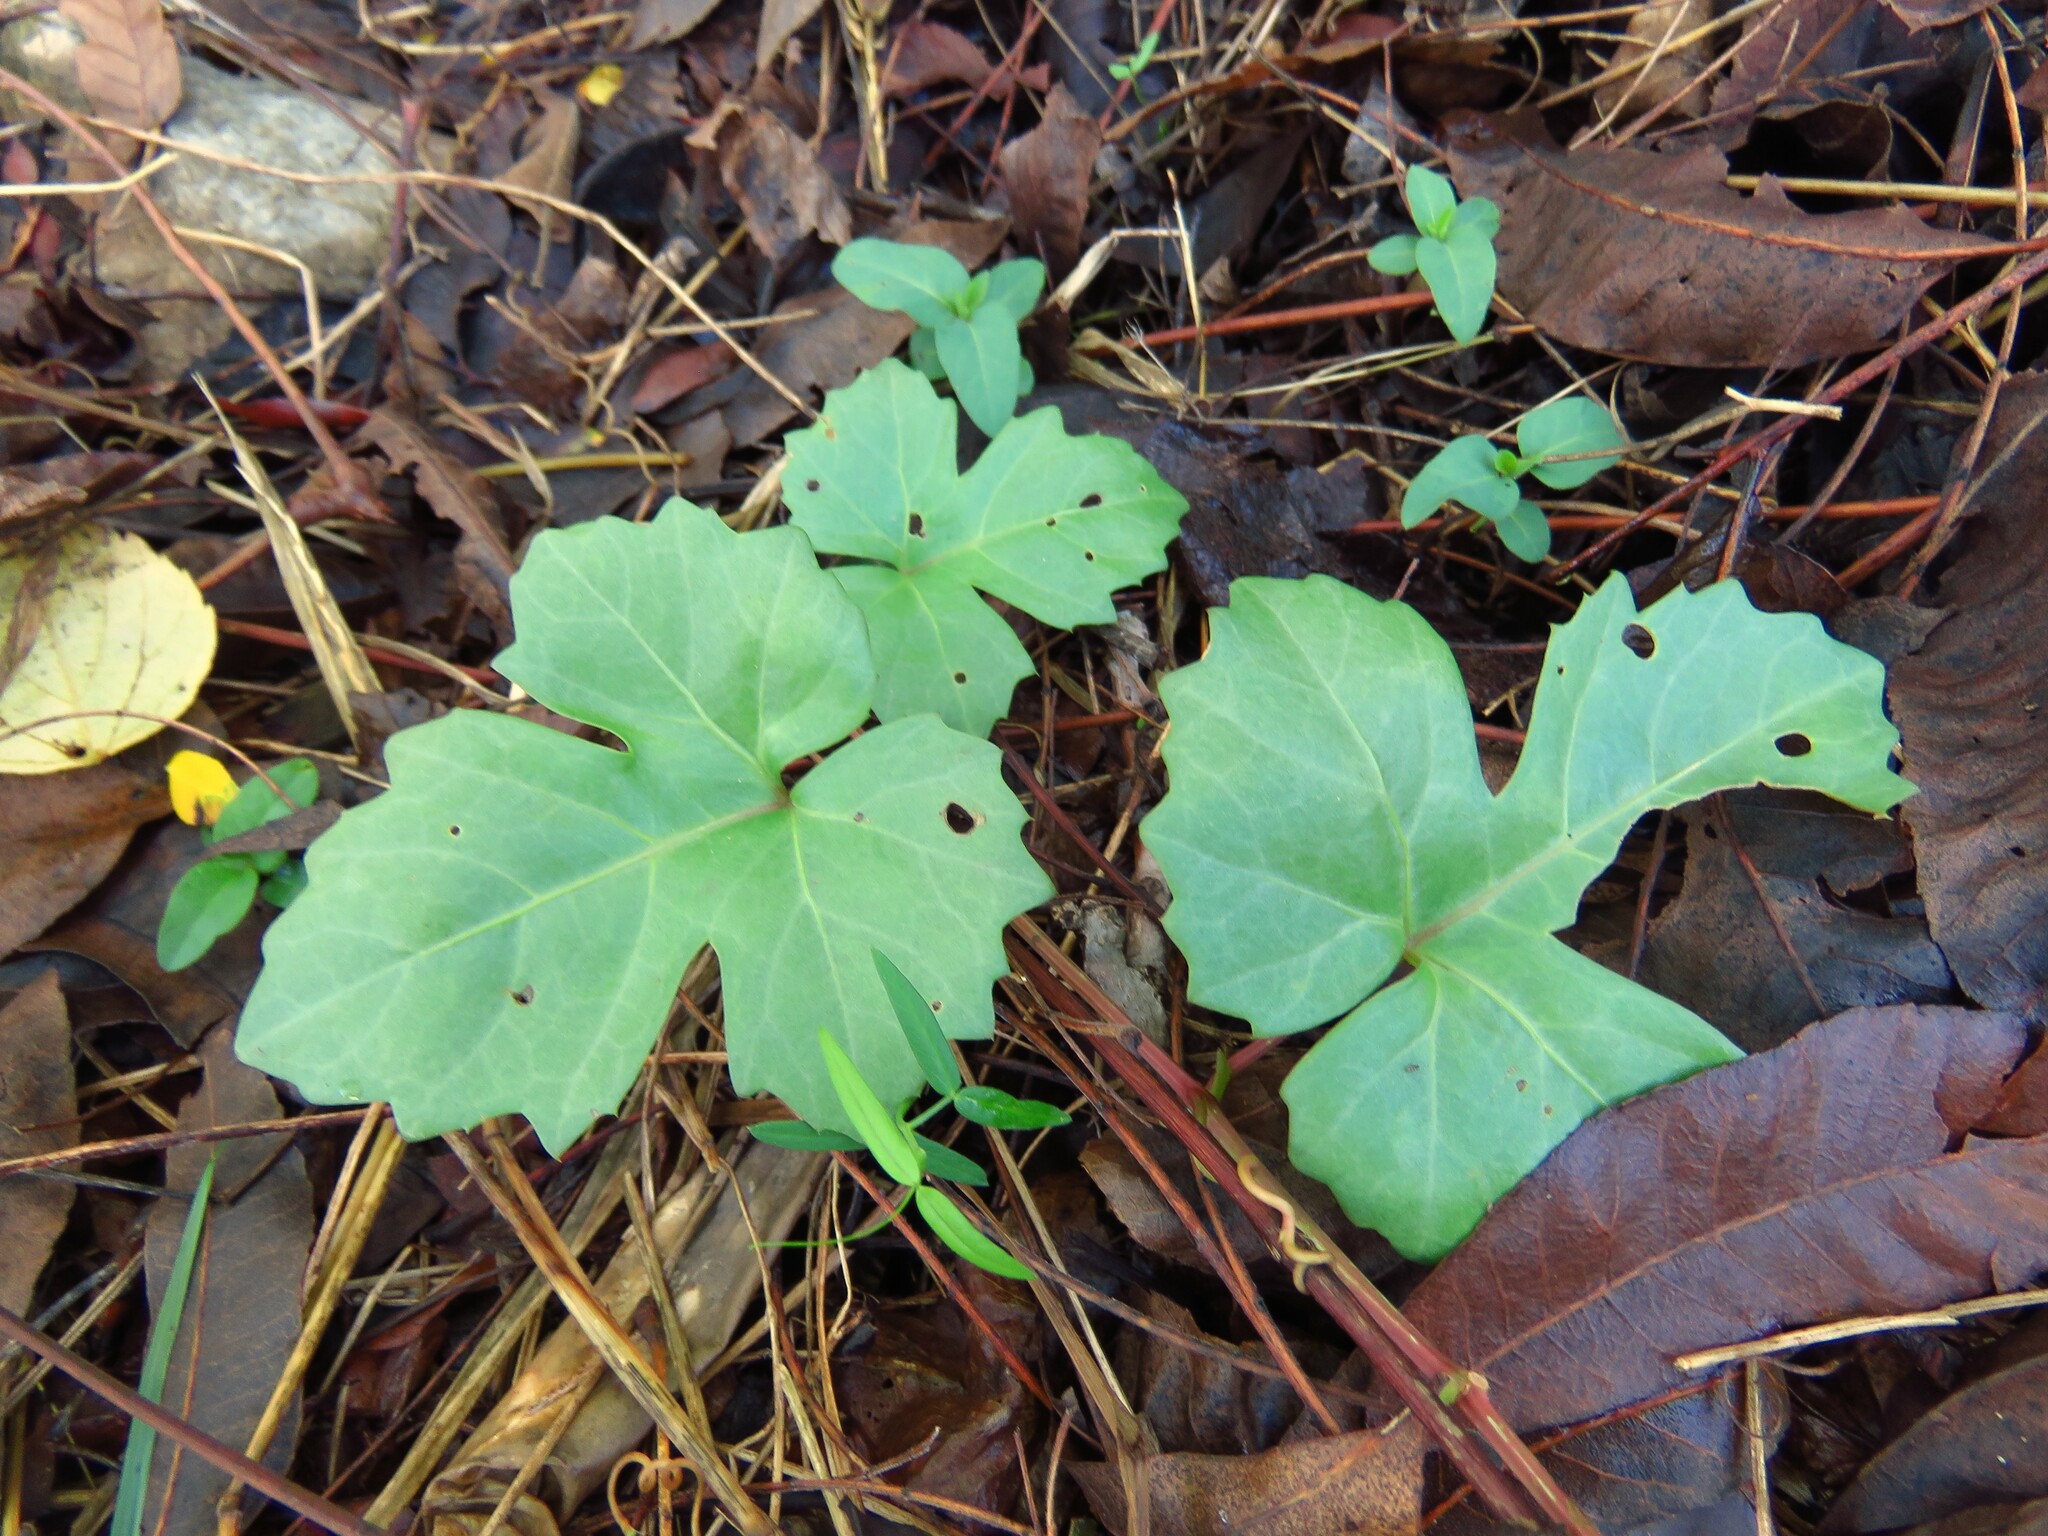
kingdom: Plantae
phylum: Tracheophyta
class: Magnoliopsida
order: Vitales
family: Vitaceae
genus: Cissus
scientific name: Cissus trifoliata
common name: Vine-sorrel
